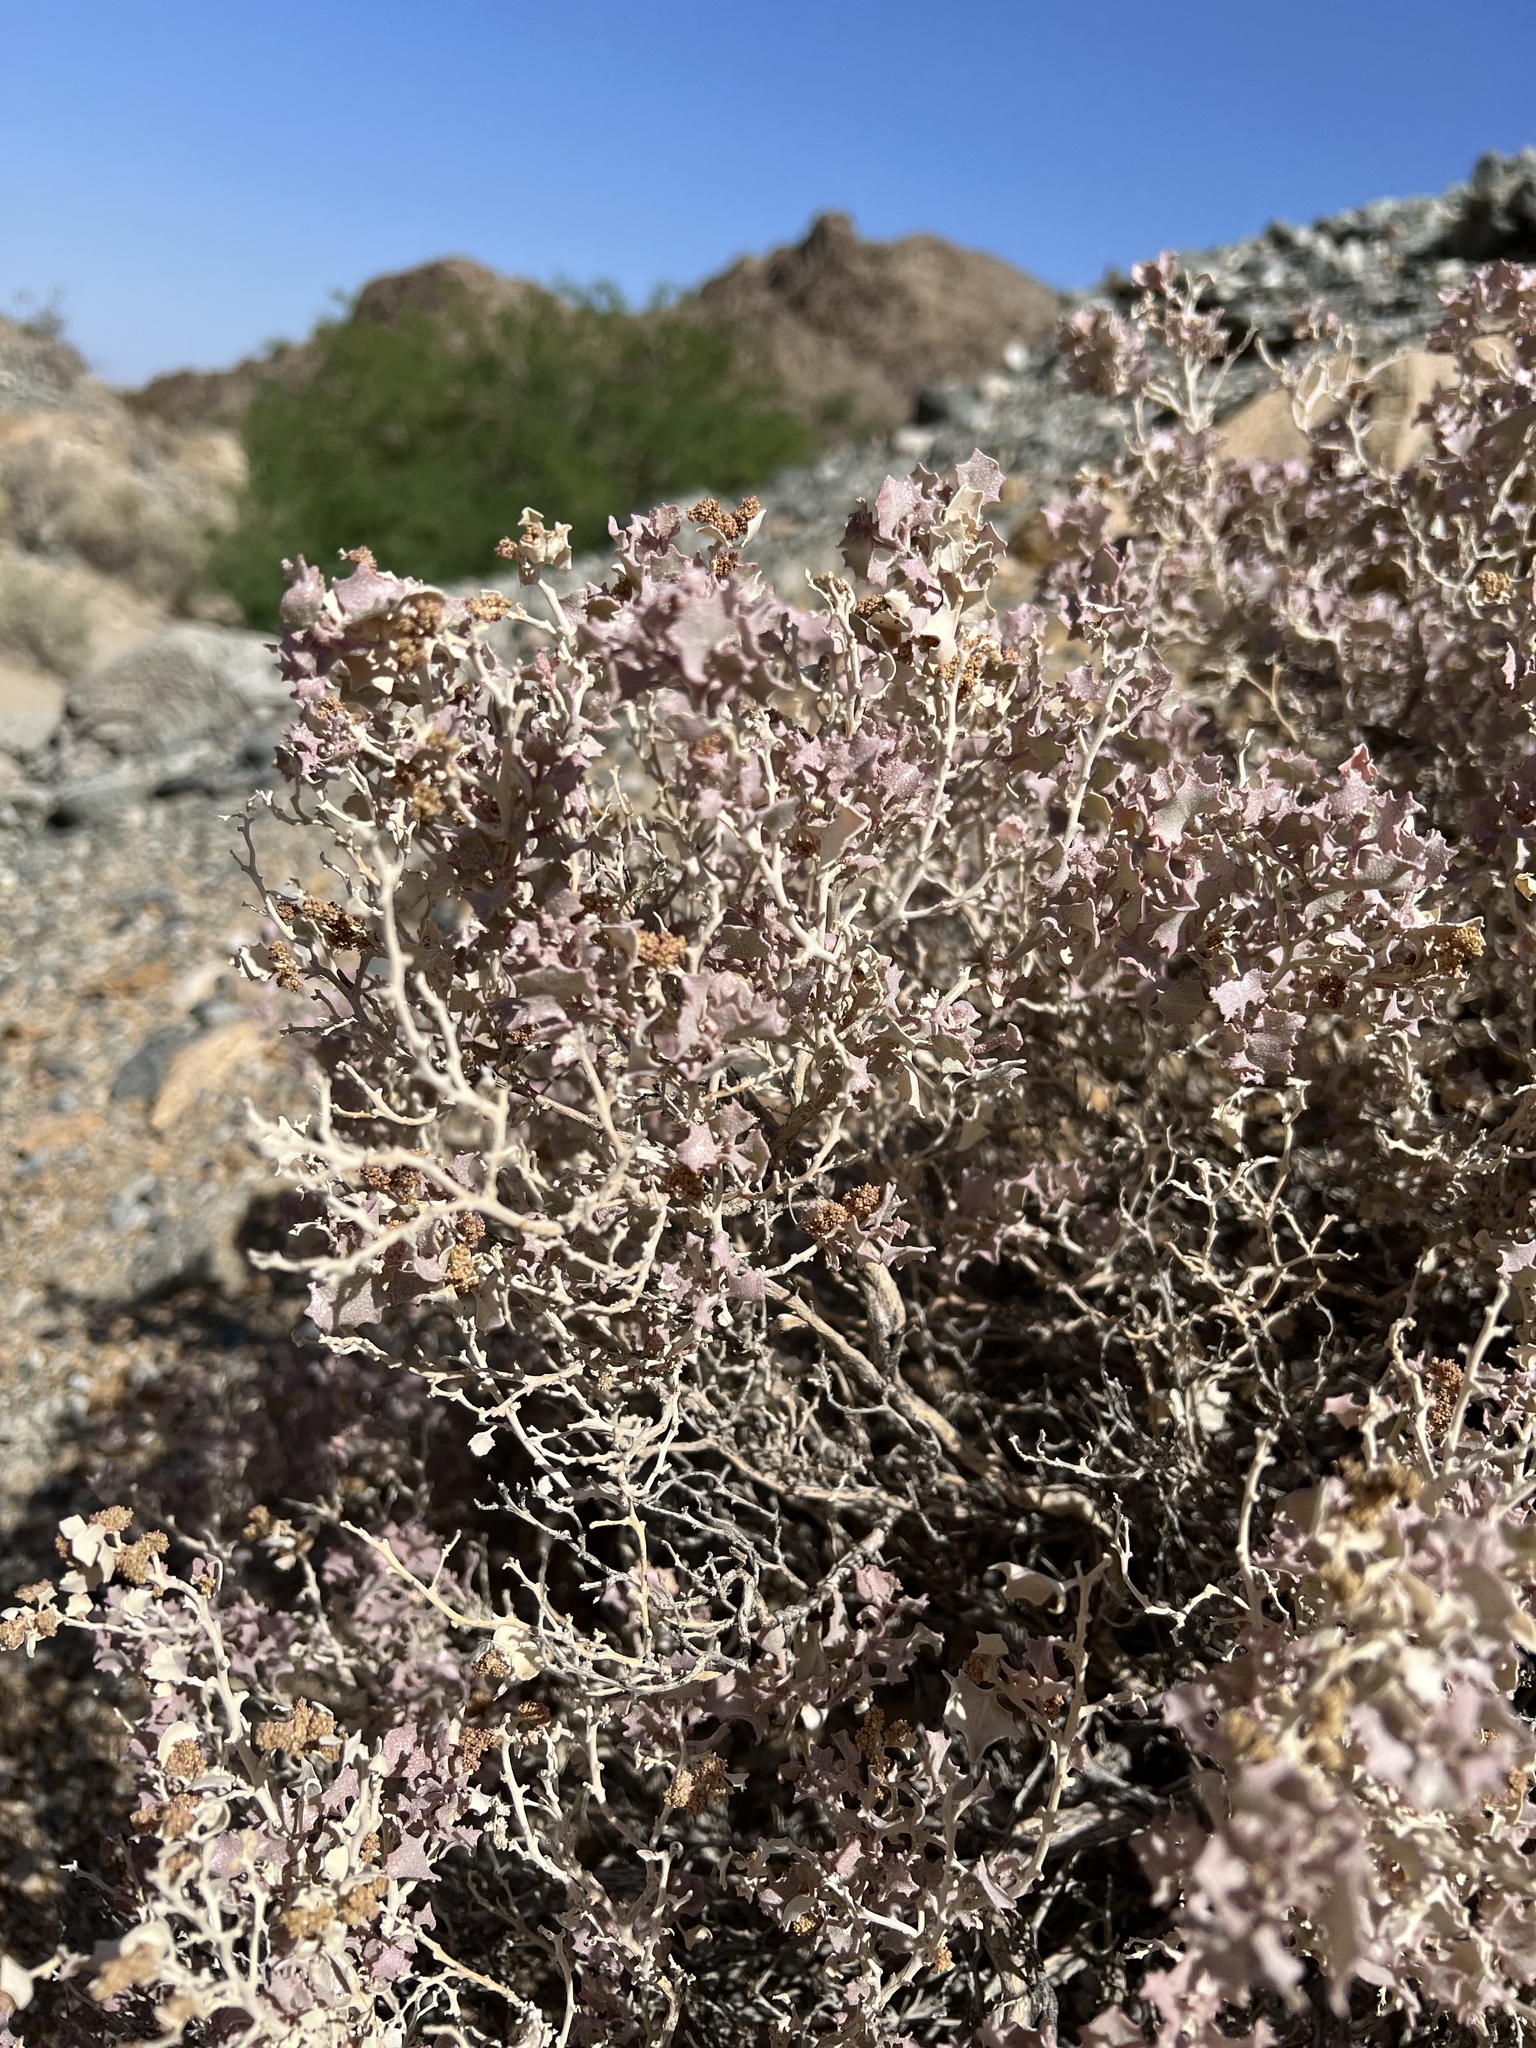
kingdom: Plantae
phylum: Tracheophyta
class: Magnoliopsida
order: Caryophyllales
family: Amaranthaceae
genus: Atriplex
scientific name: Atriplex hymenelytra
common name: Desert-holly
